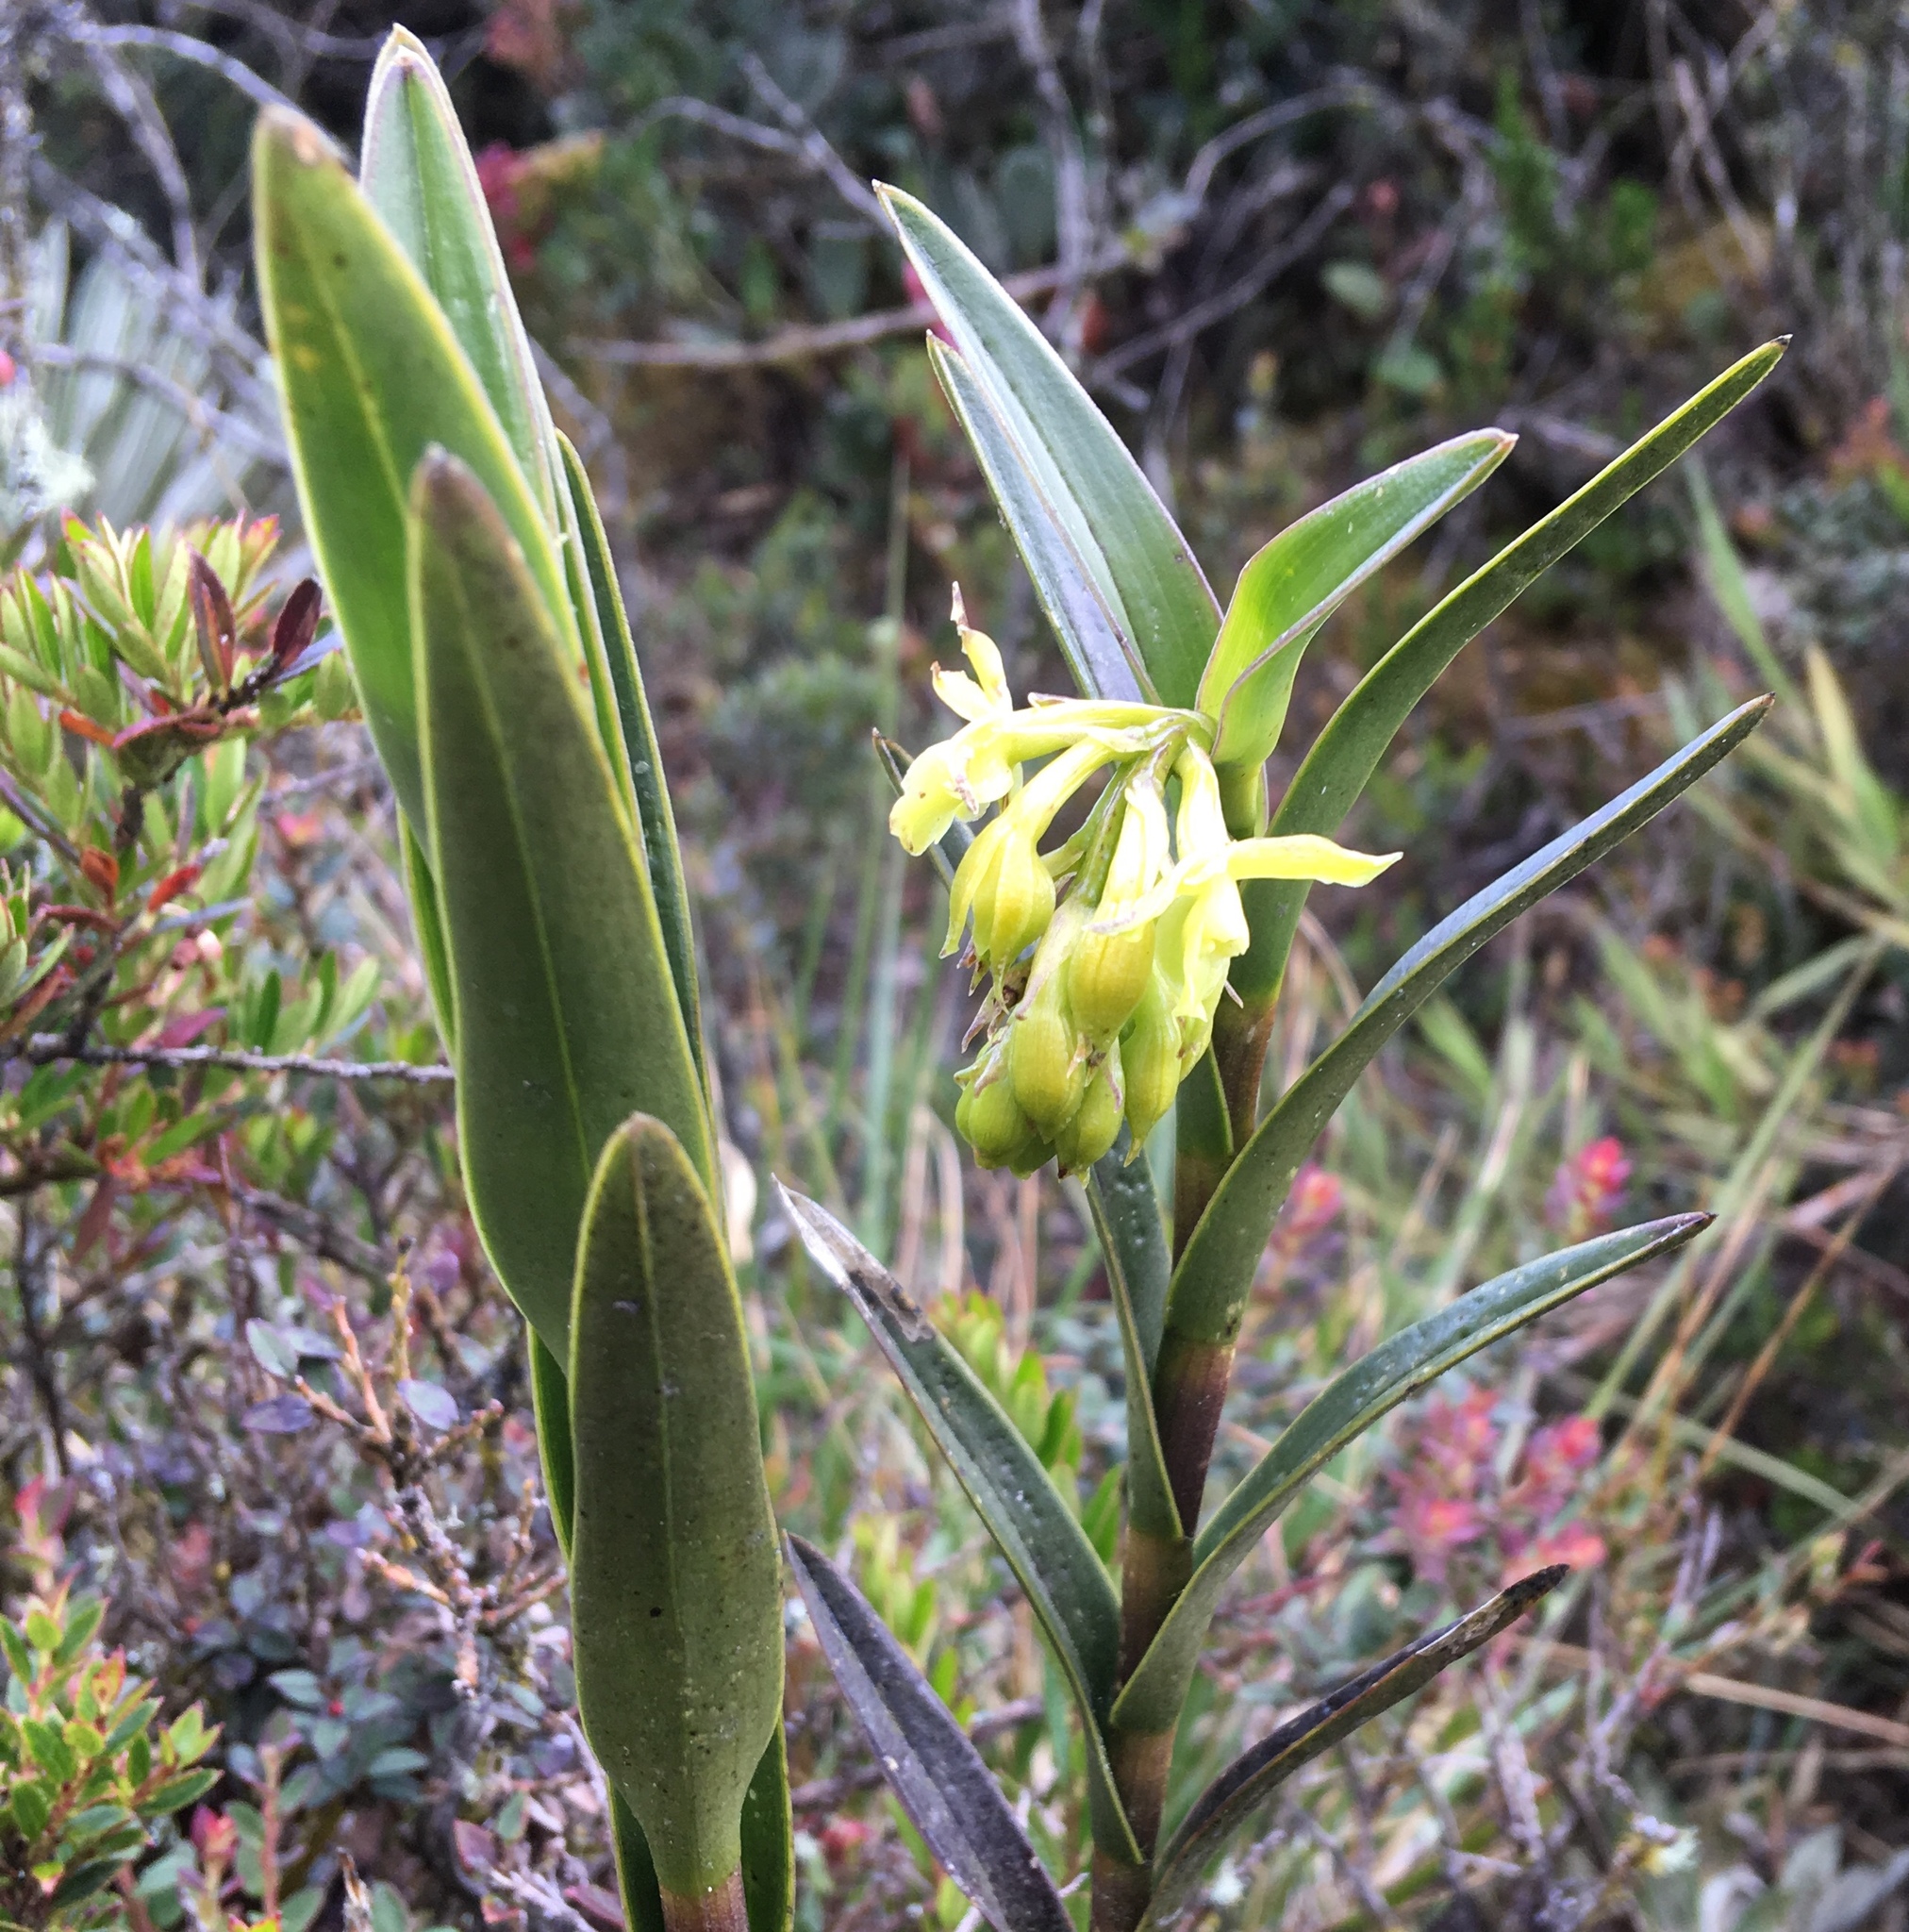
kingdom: Plantae
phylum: Tracheophyta
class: Liliopsida
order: Asparagales
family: Orchidaceae
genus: Epidendrum
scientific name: Epidendrum zipaquiranum
